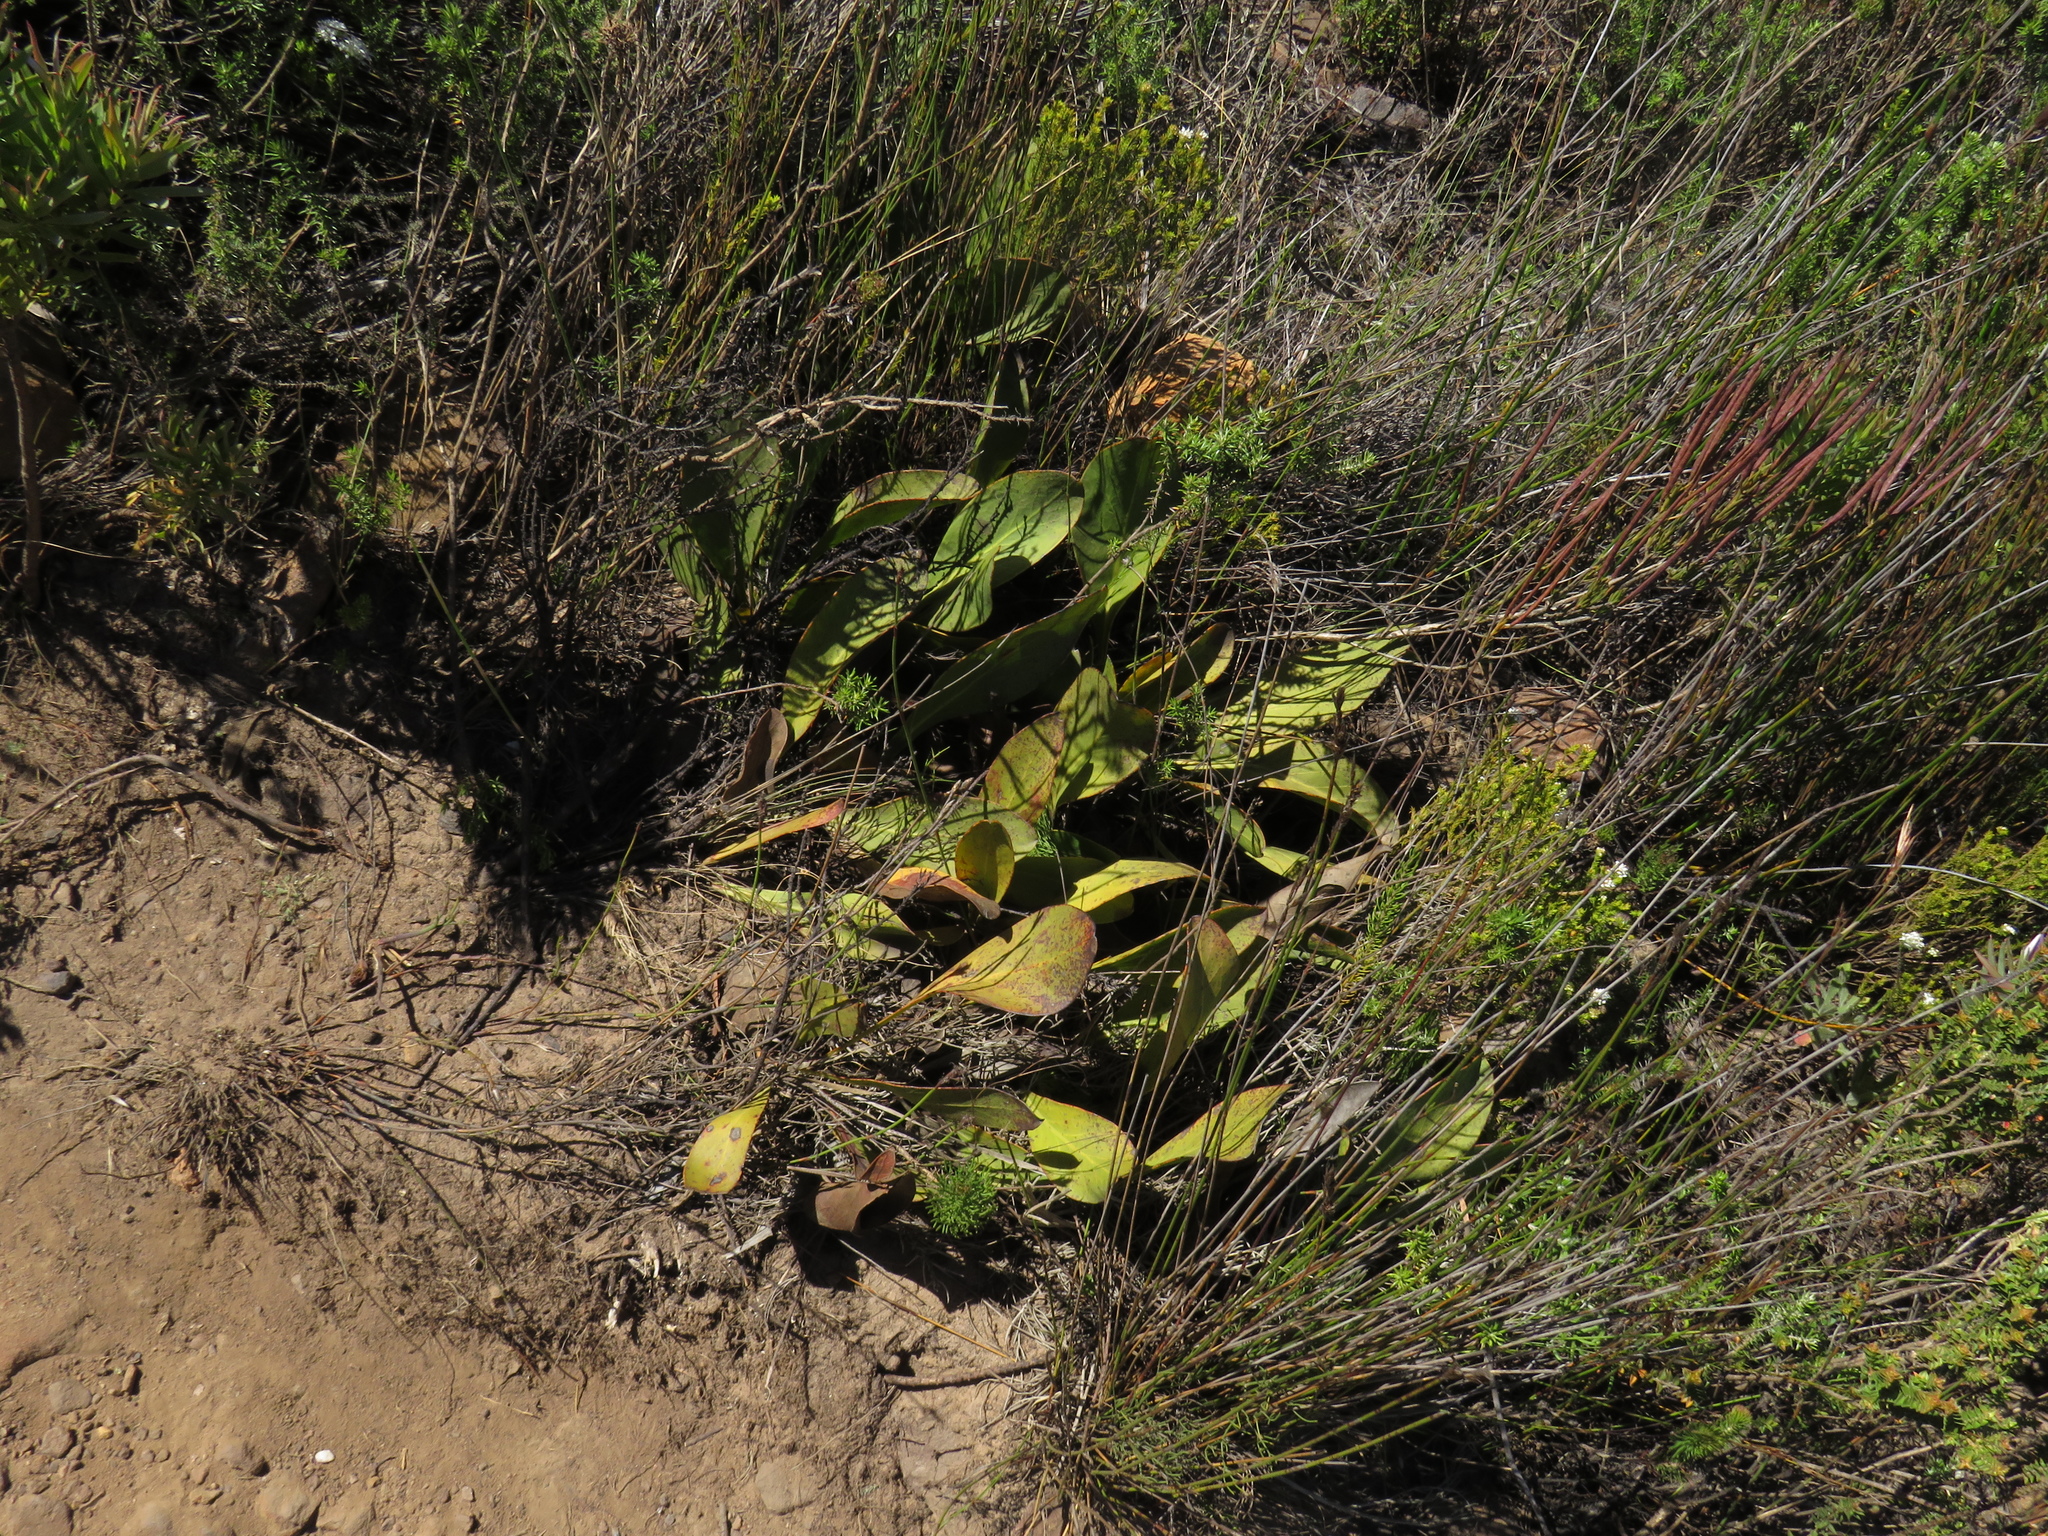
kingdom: Plantae
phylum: Tracheophyta
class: Magnoliopsida
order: Proteales
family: Proteaceae
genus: Protea
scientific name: Protea acaulos
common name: Common ground sugarbush
